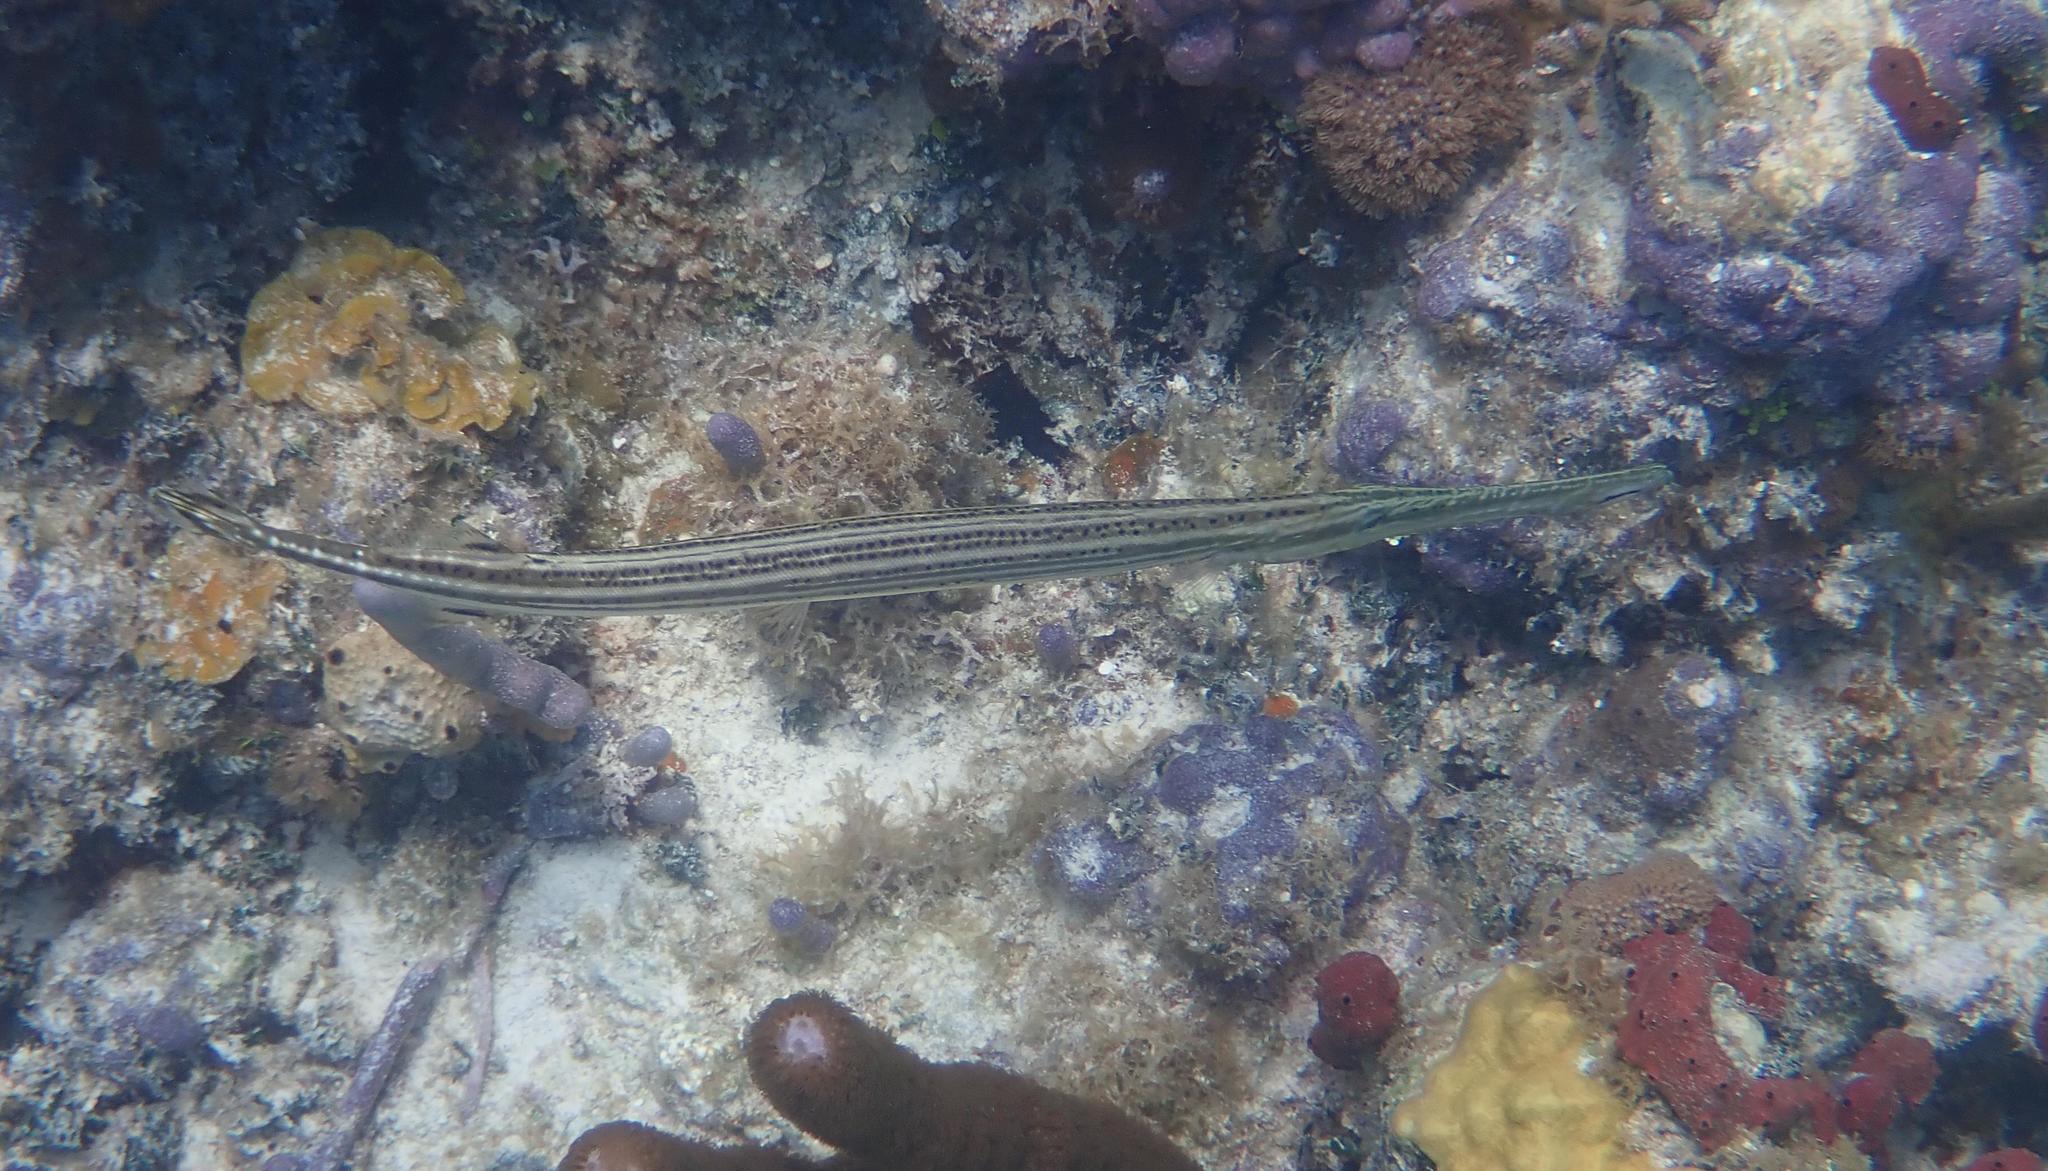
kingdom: Animalia
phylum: Chordata
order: Syngnathiformes
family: Aulostomidae
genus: Aulostomus
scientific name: Aulostomus maculatus
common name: West atlantic trumpetfish
